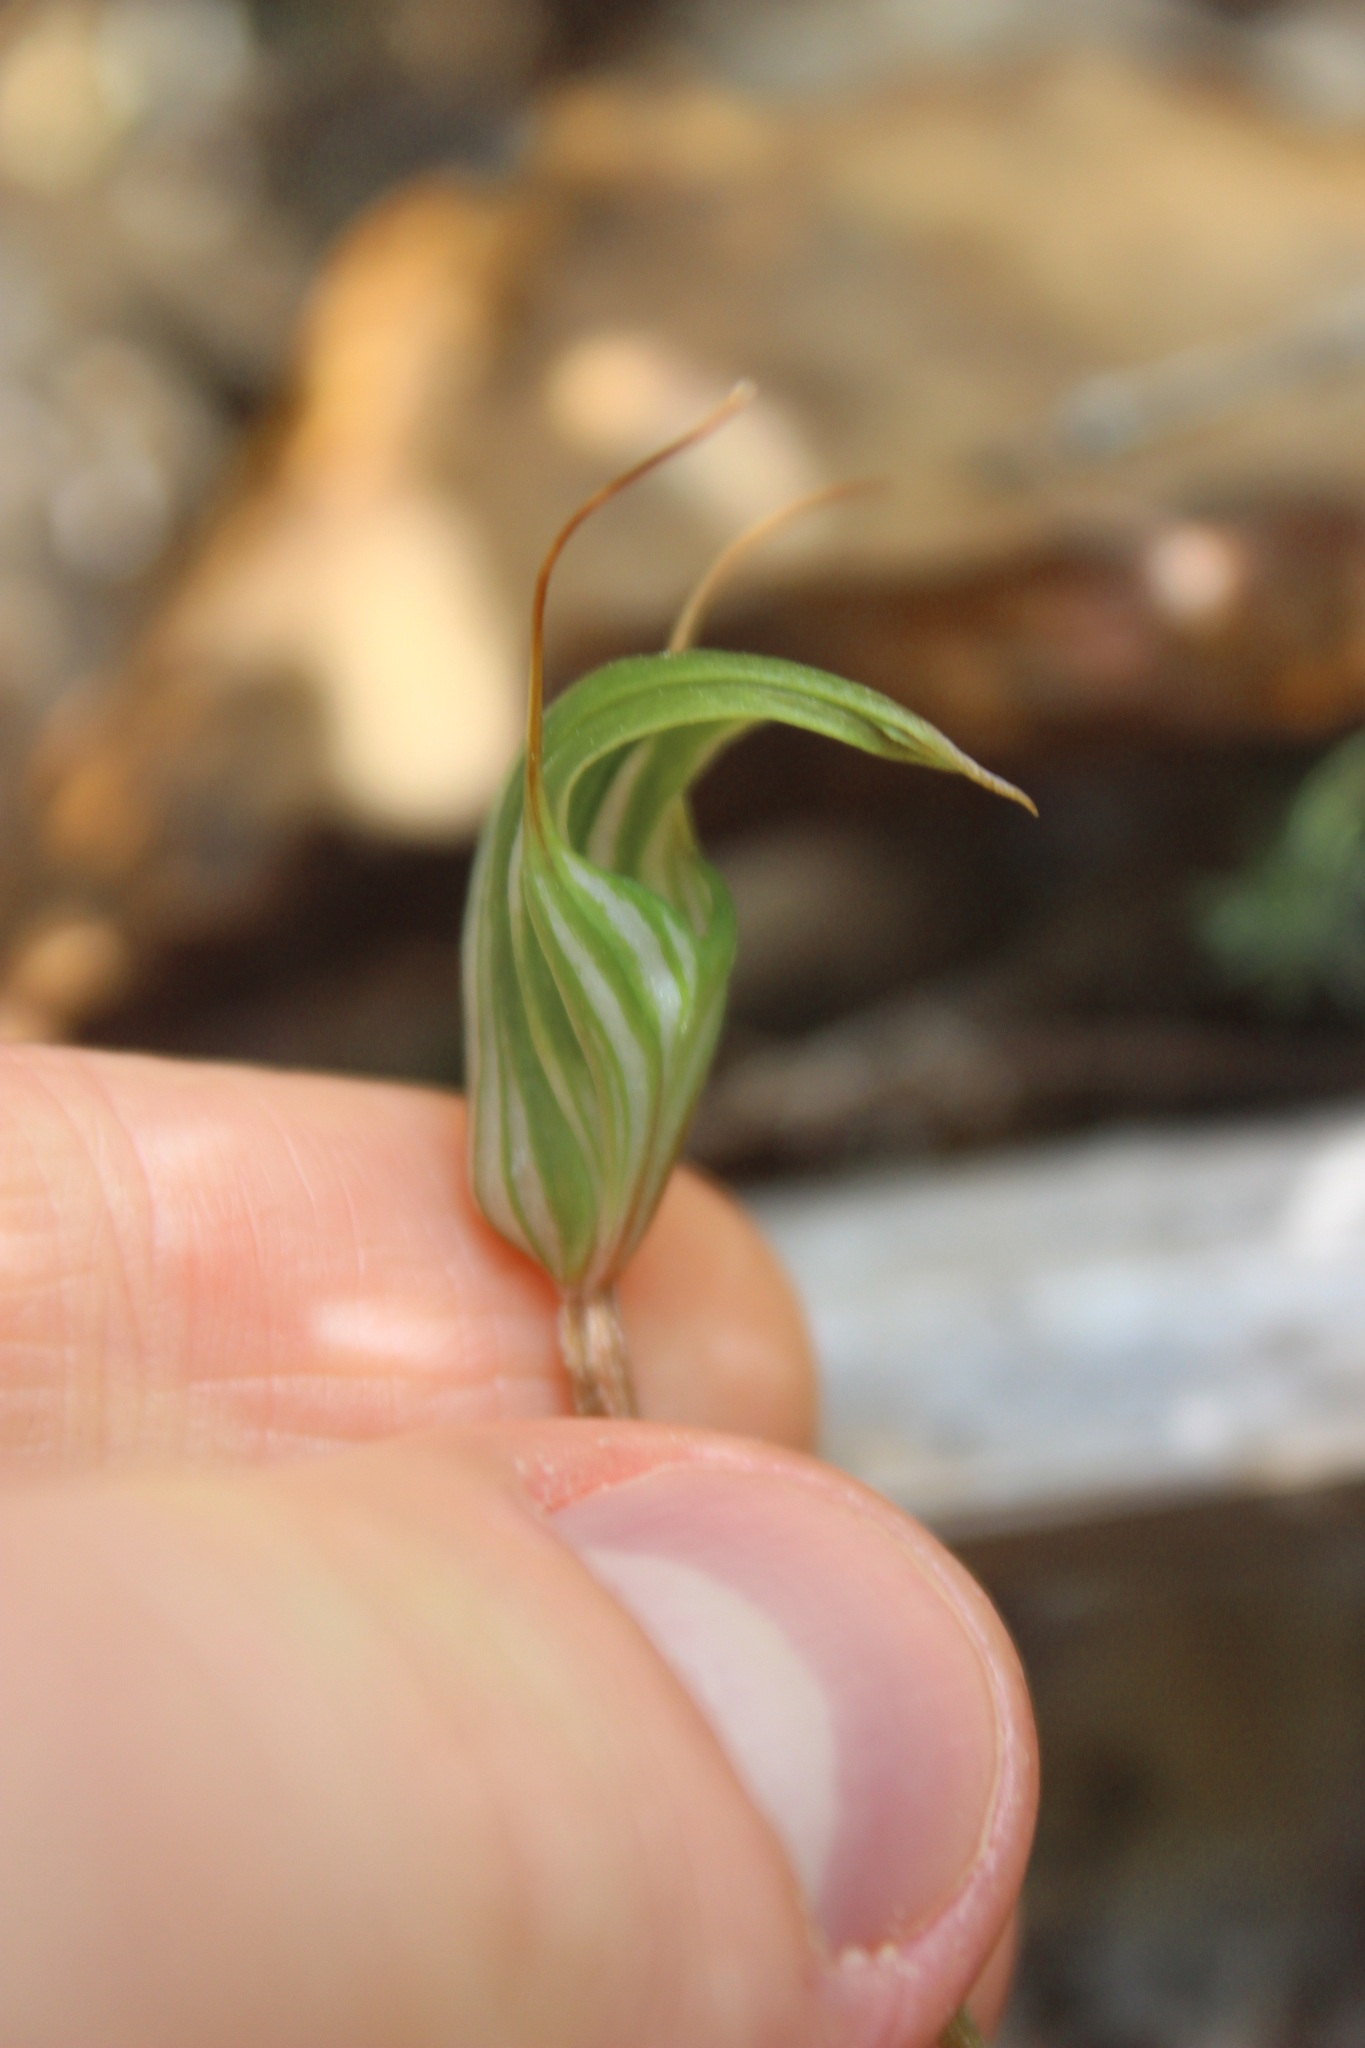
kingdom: Plantae
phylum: Tracheophyta
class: Liliopsida
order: Asparagales
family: Orchidaceae
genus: Pterostylis
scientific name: Pterostylis alobula
